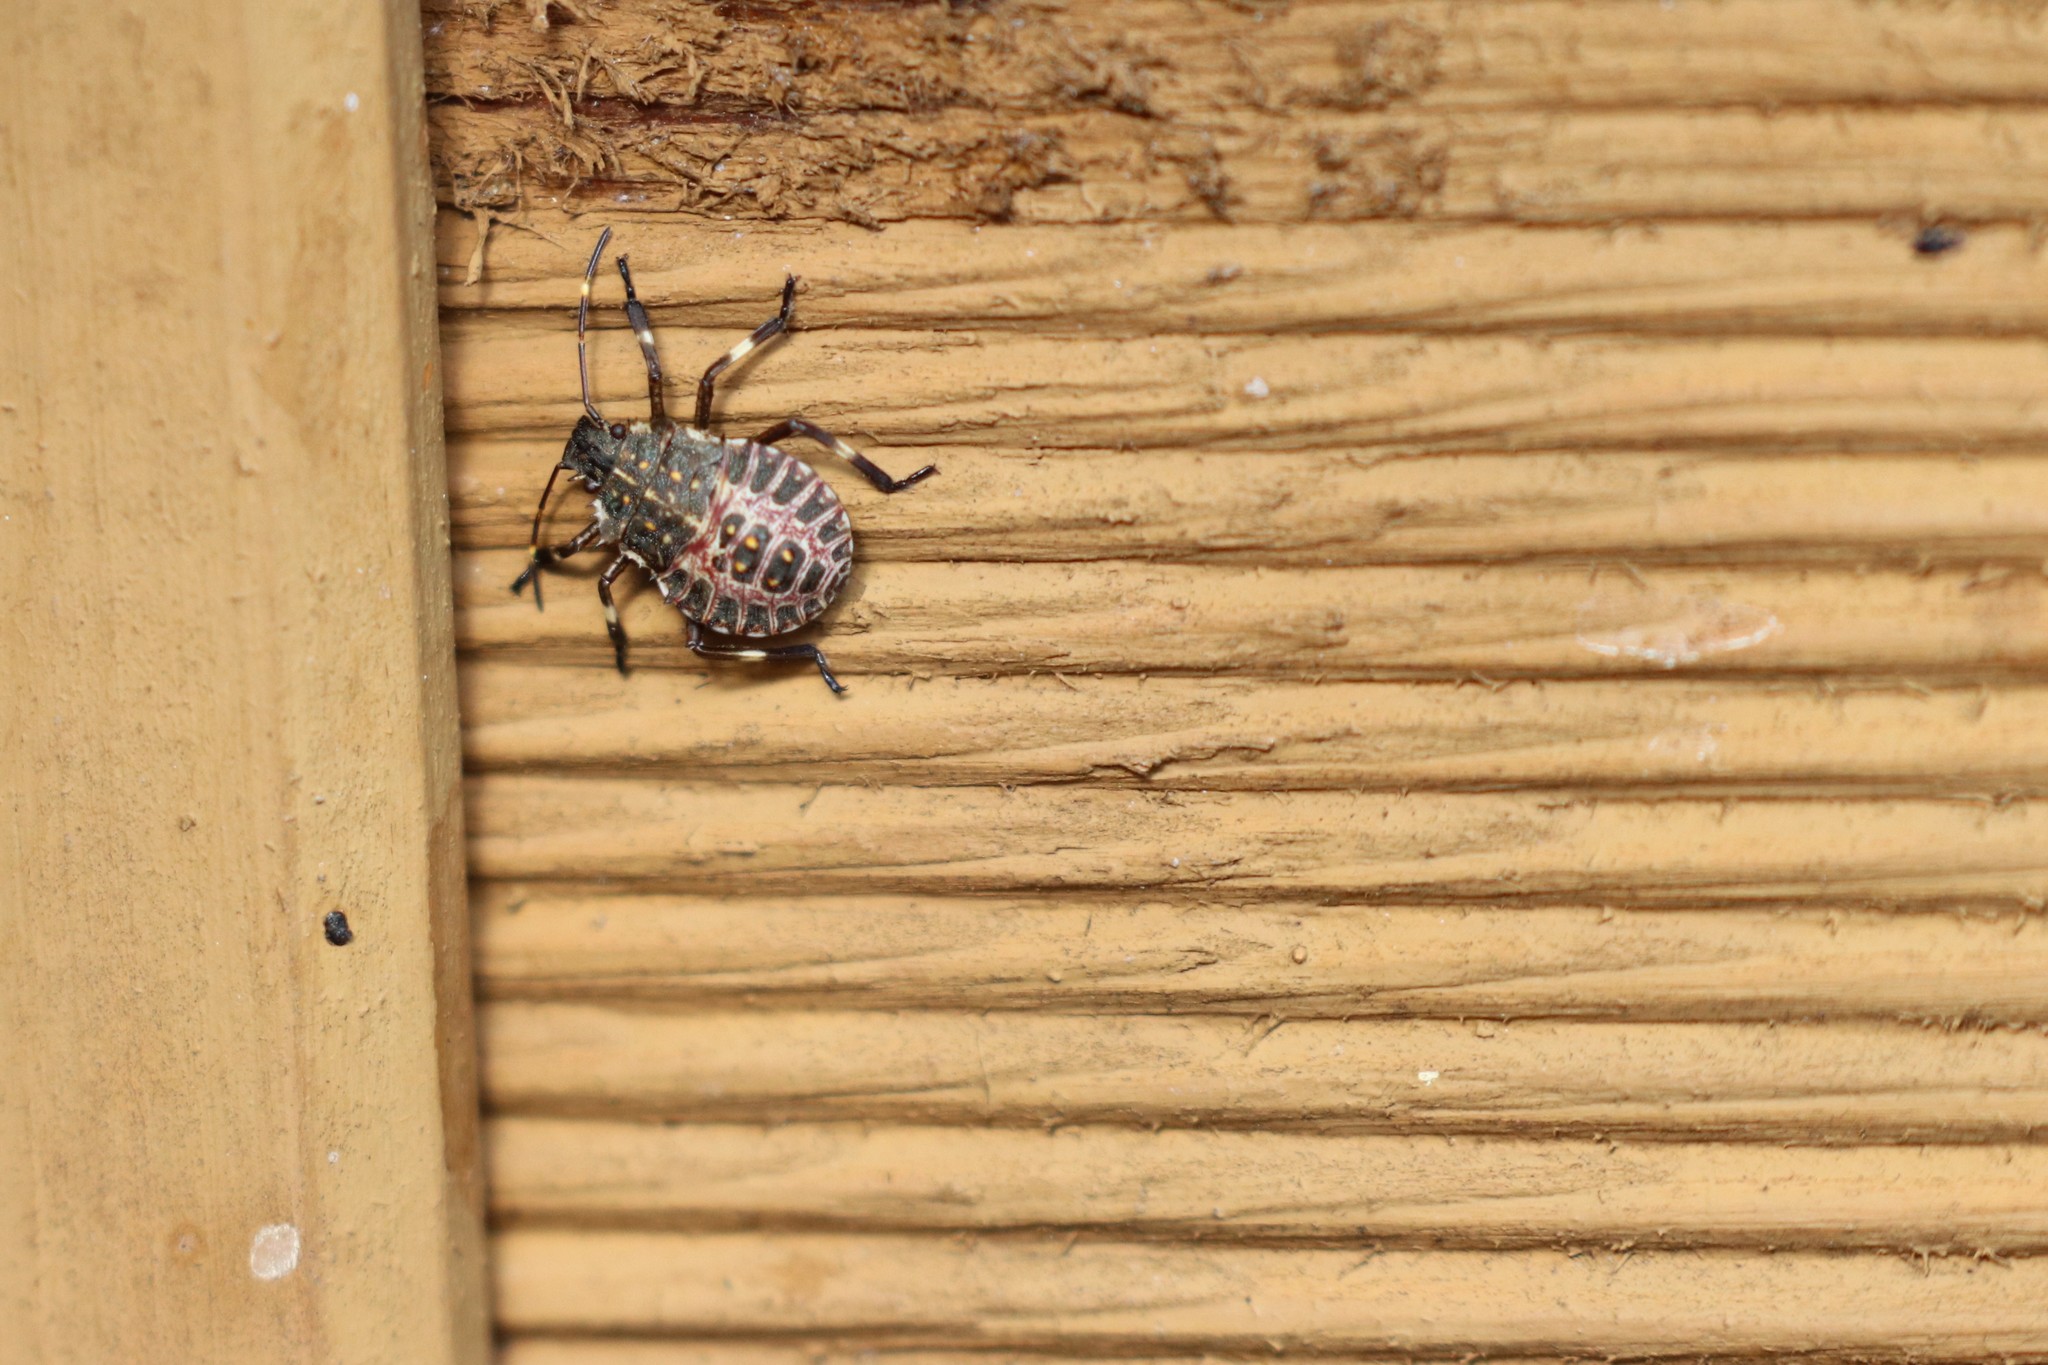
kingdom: Animalia
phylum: Arthropoda
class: Insecta
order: Hemiptera
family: Pentatomidae
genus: Halyomorpha
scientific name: Halyomorpha halys
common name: Brown marmorated stink bug
